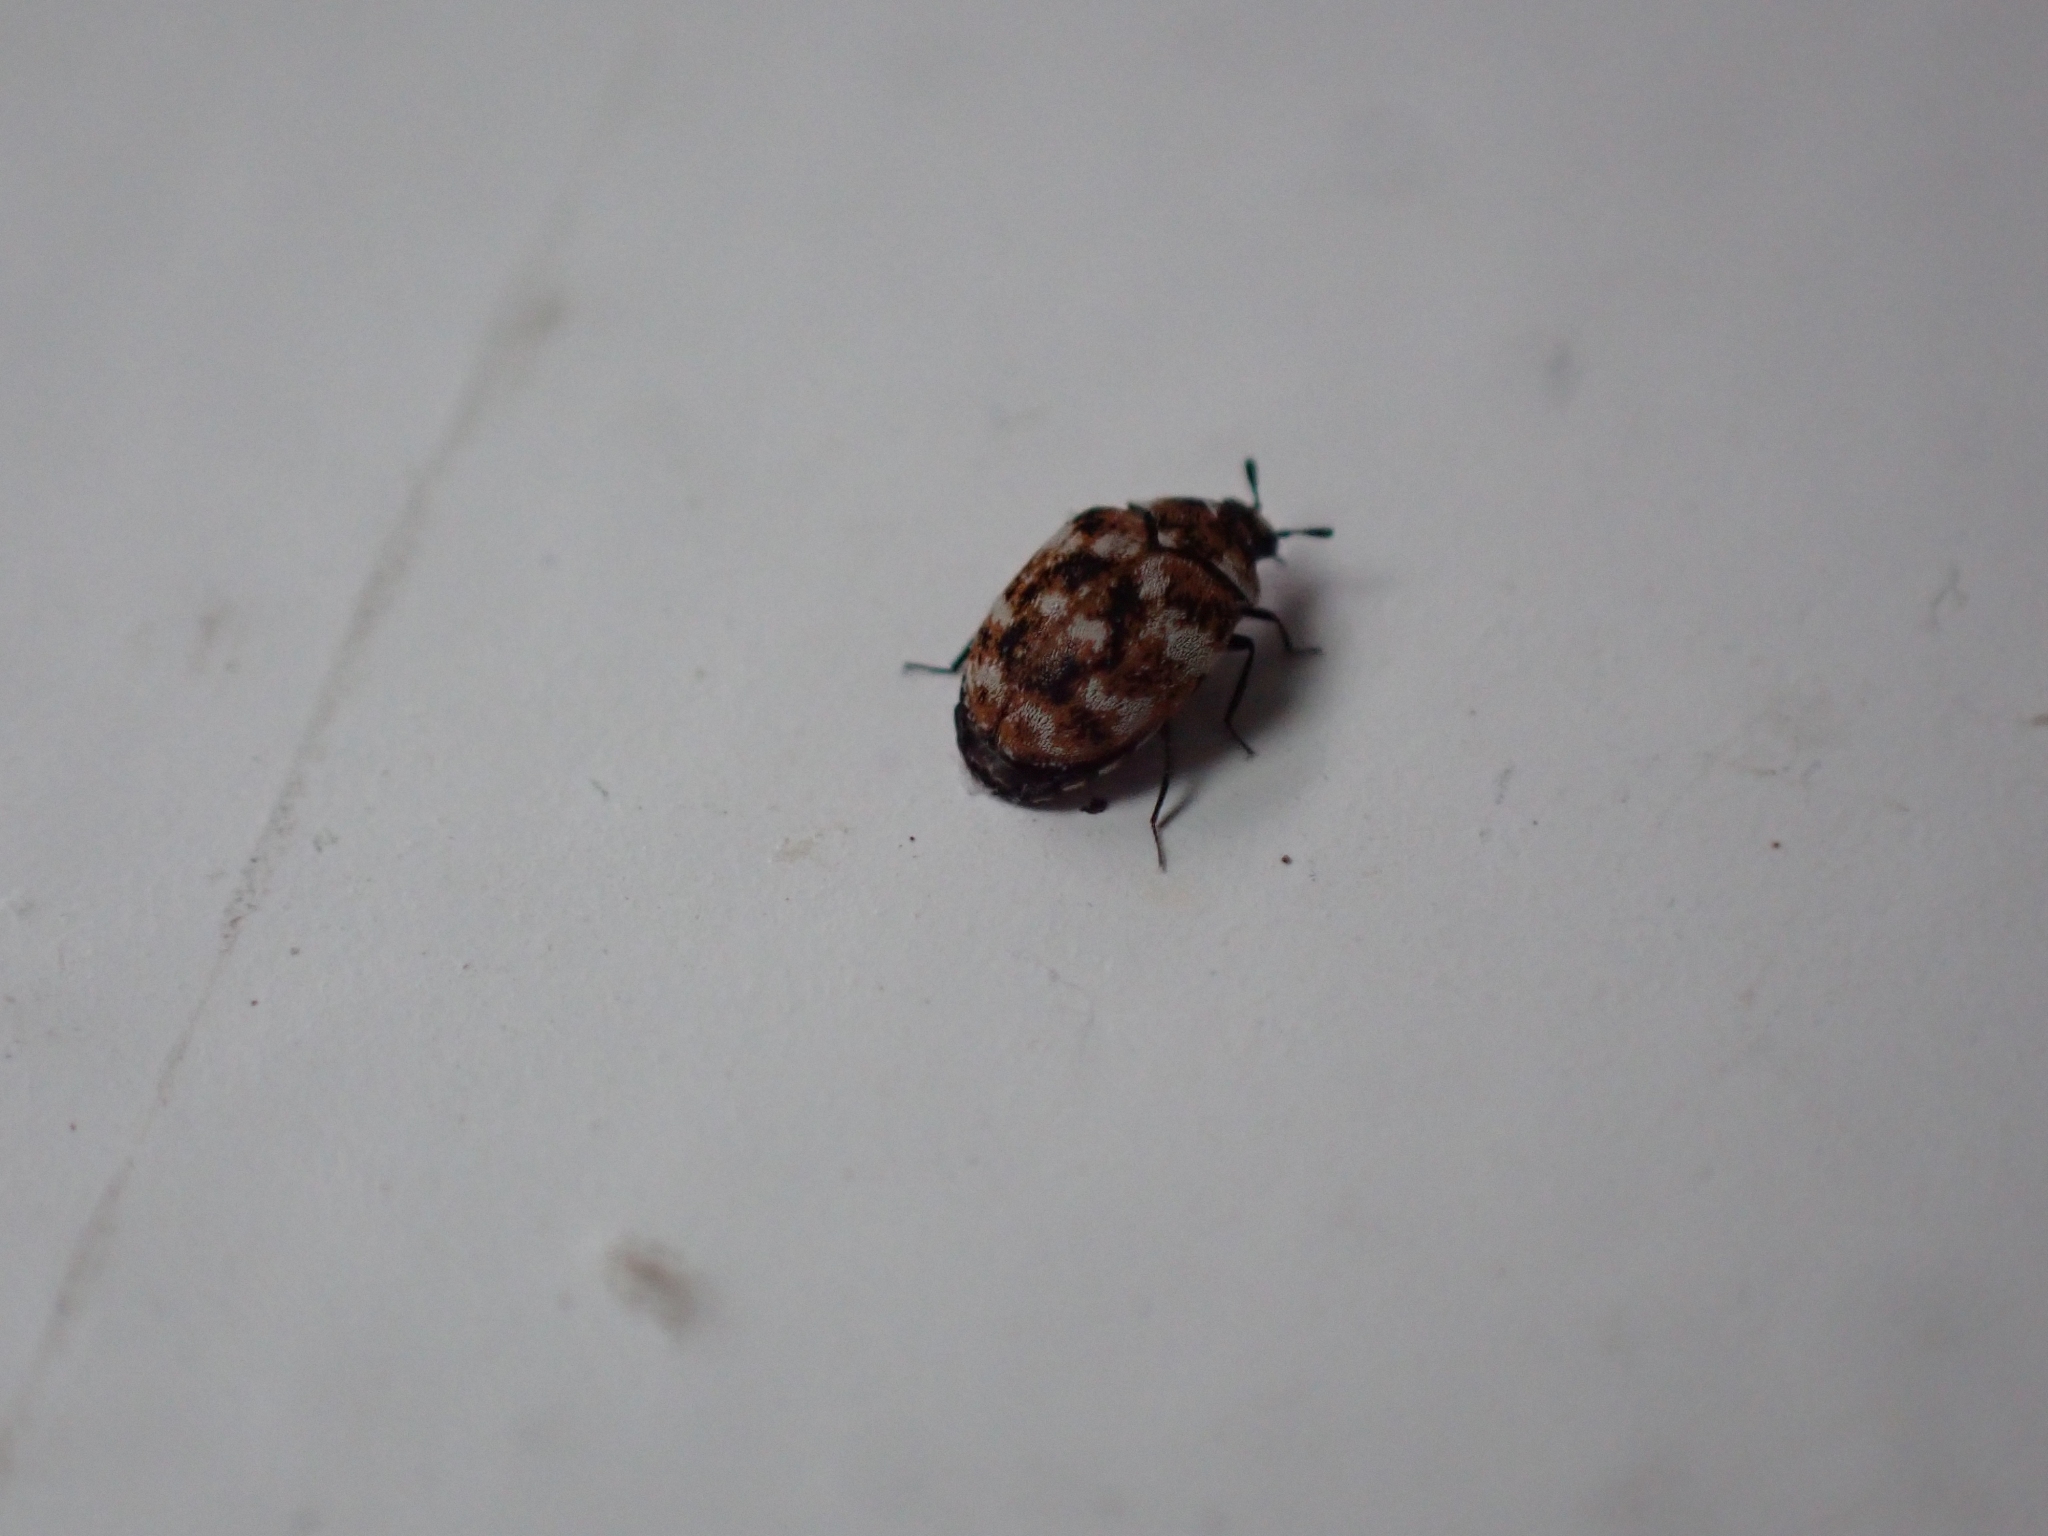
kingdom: Animalia
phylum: Arthropoda
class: Insecta
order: Coleoptera
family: Dermestidae
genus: Anthrenus
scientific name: Anthrenus verbasci
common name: Varied carpet beetle
